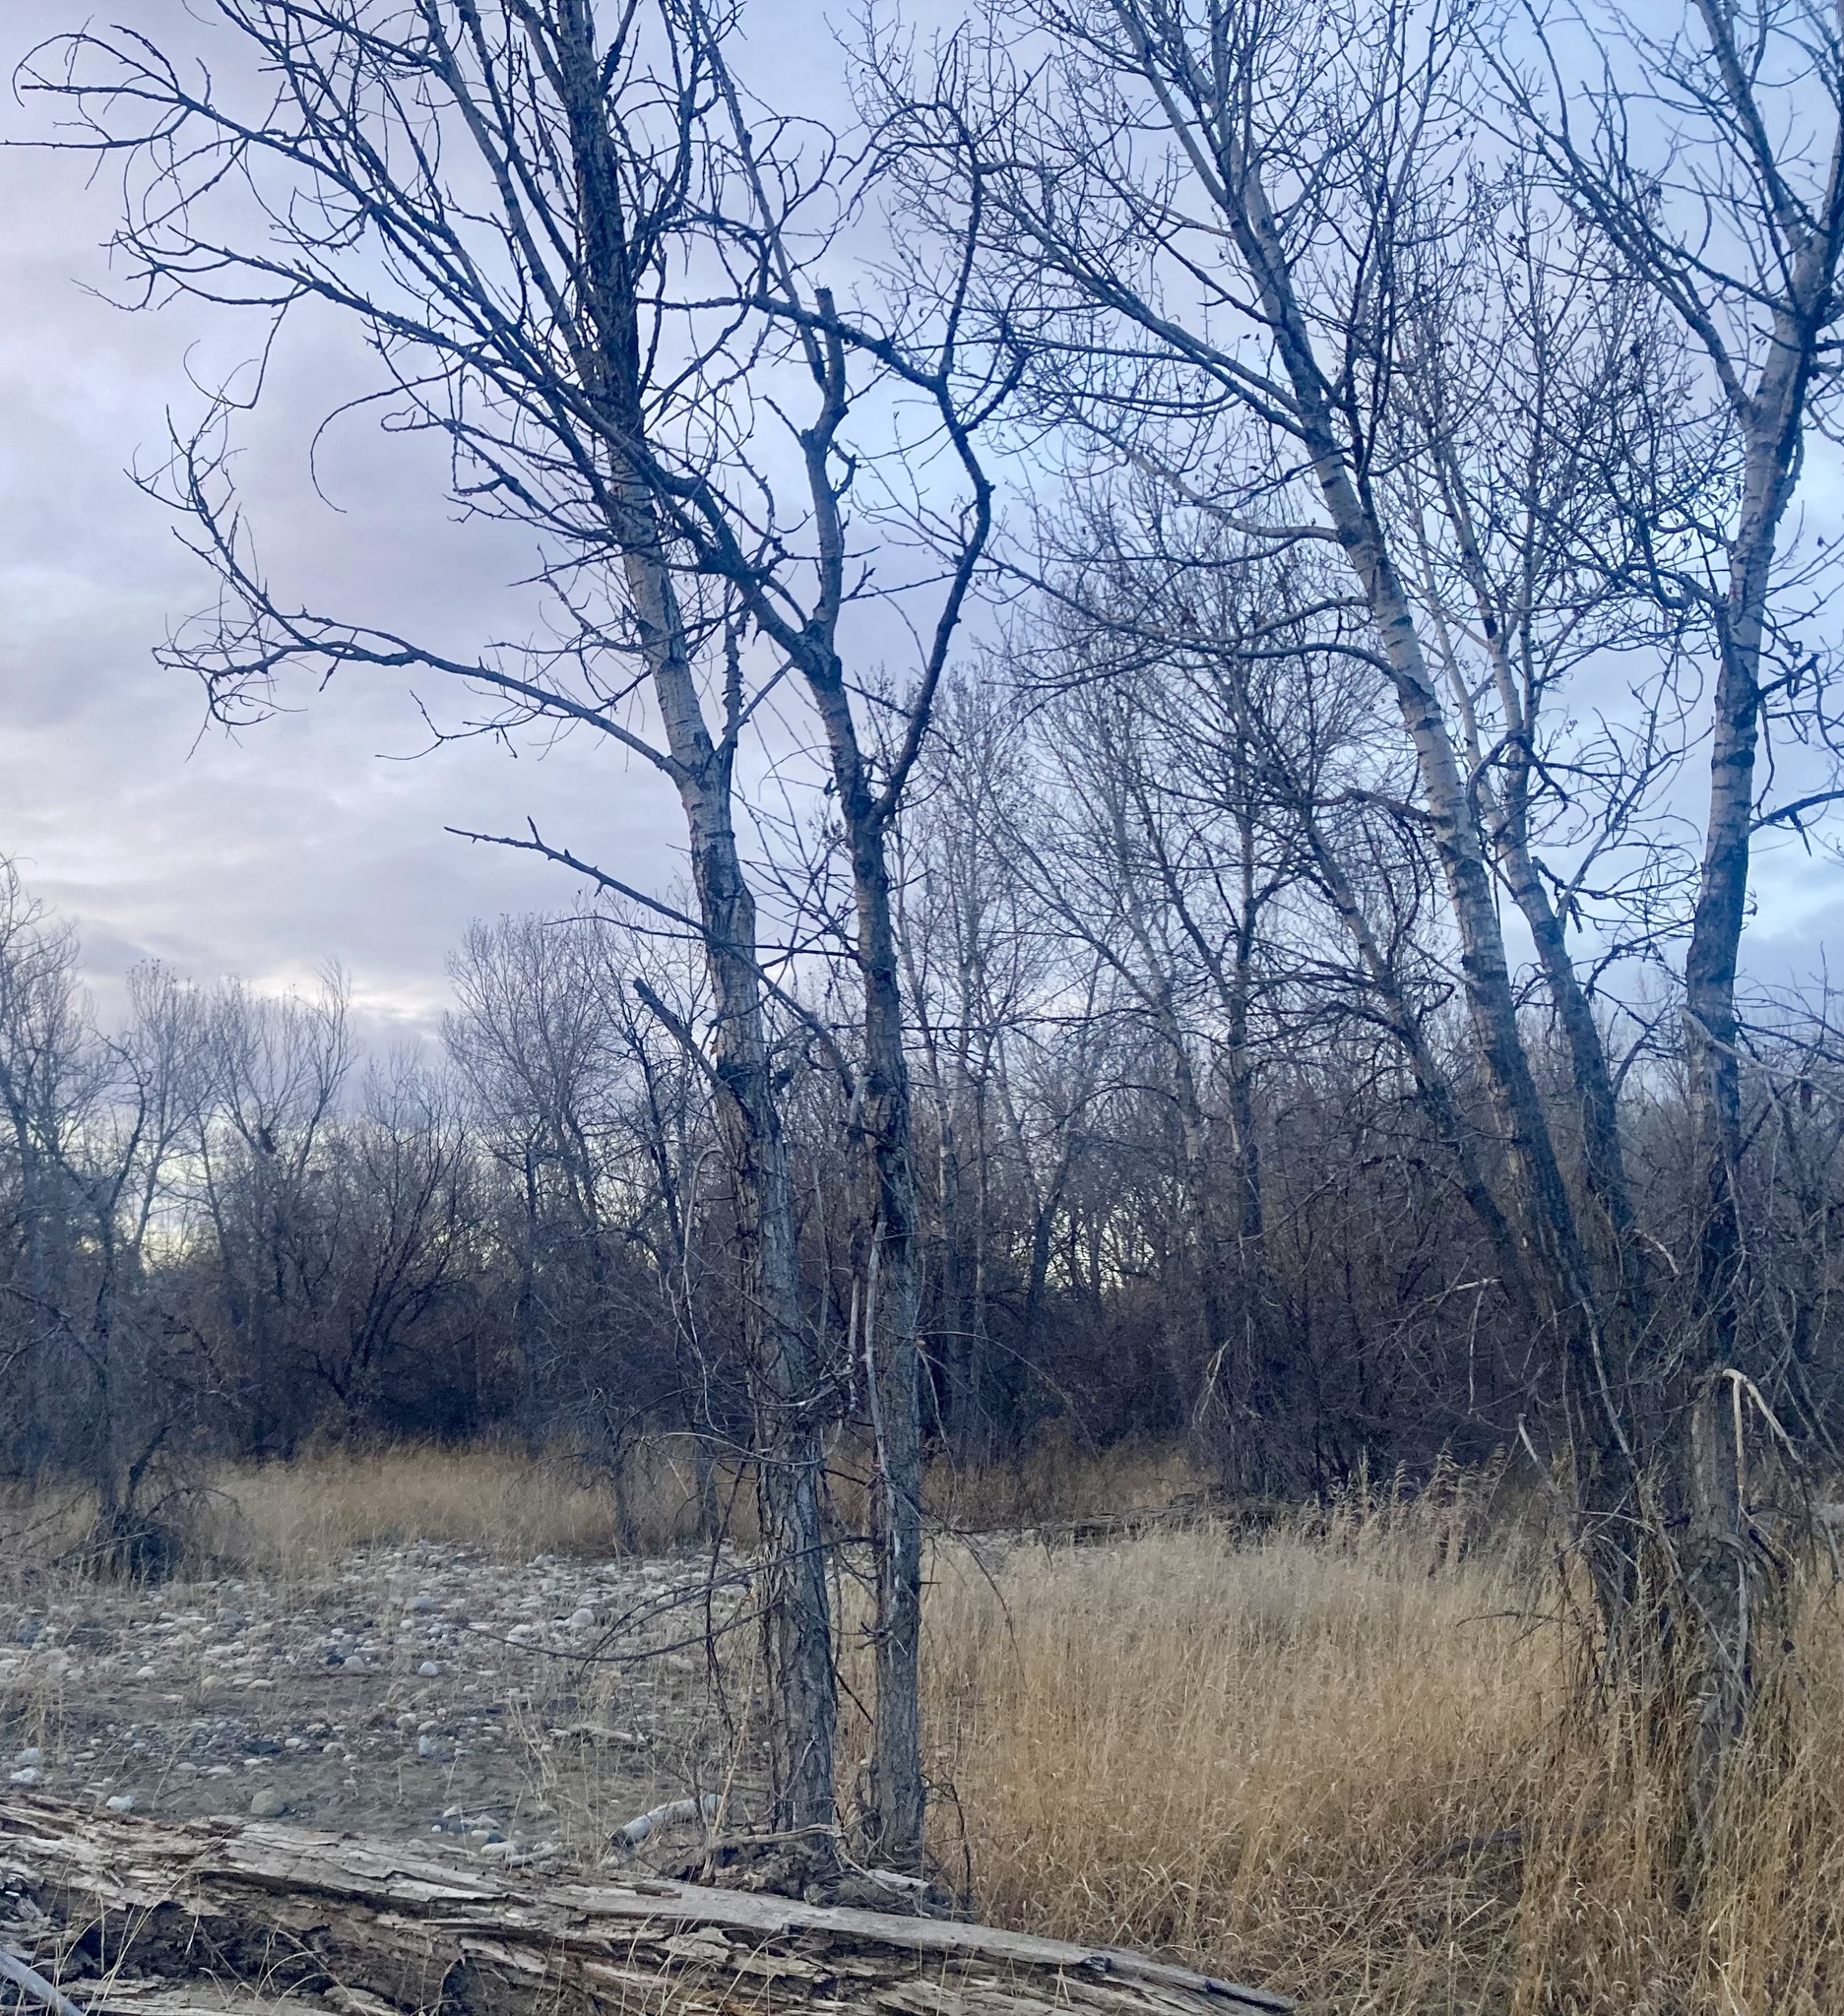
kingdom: Plantae
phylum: Tracheophyta
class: Magnoliopsida
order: Malpighiales
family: Salicaceae
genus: Populus
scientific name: Populus deltoides
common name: Eastern cottonwood
